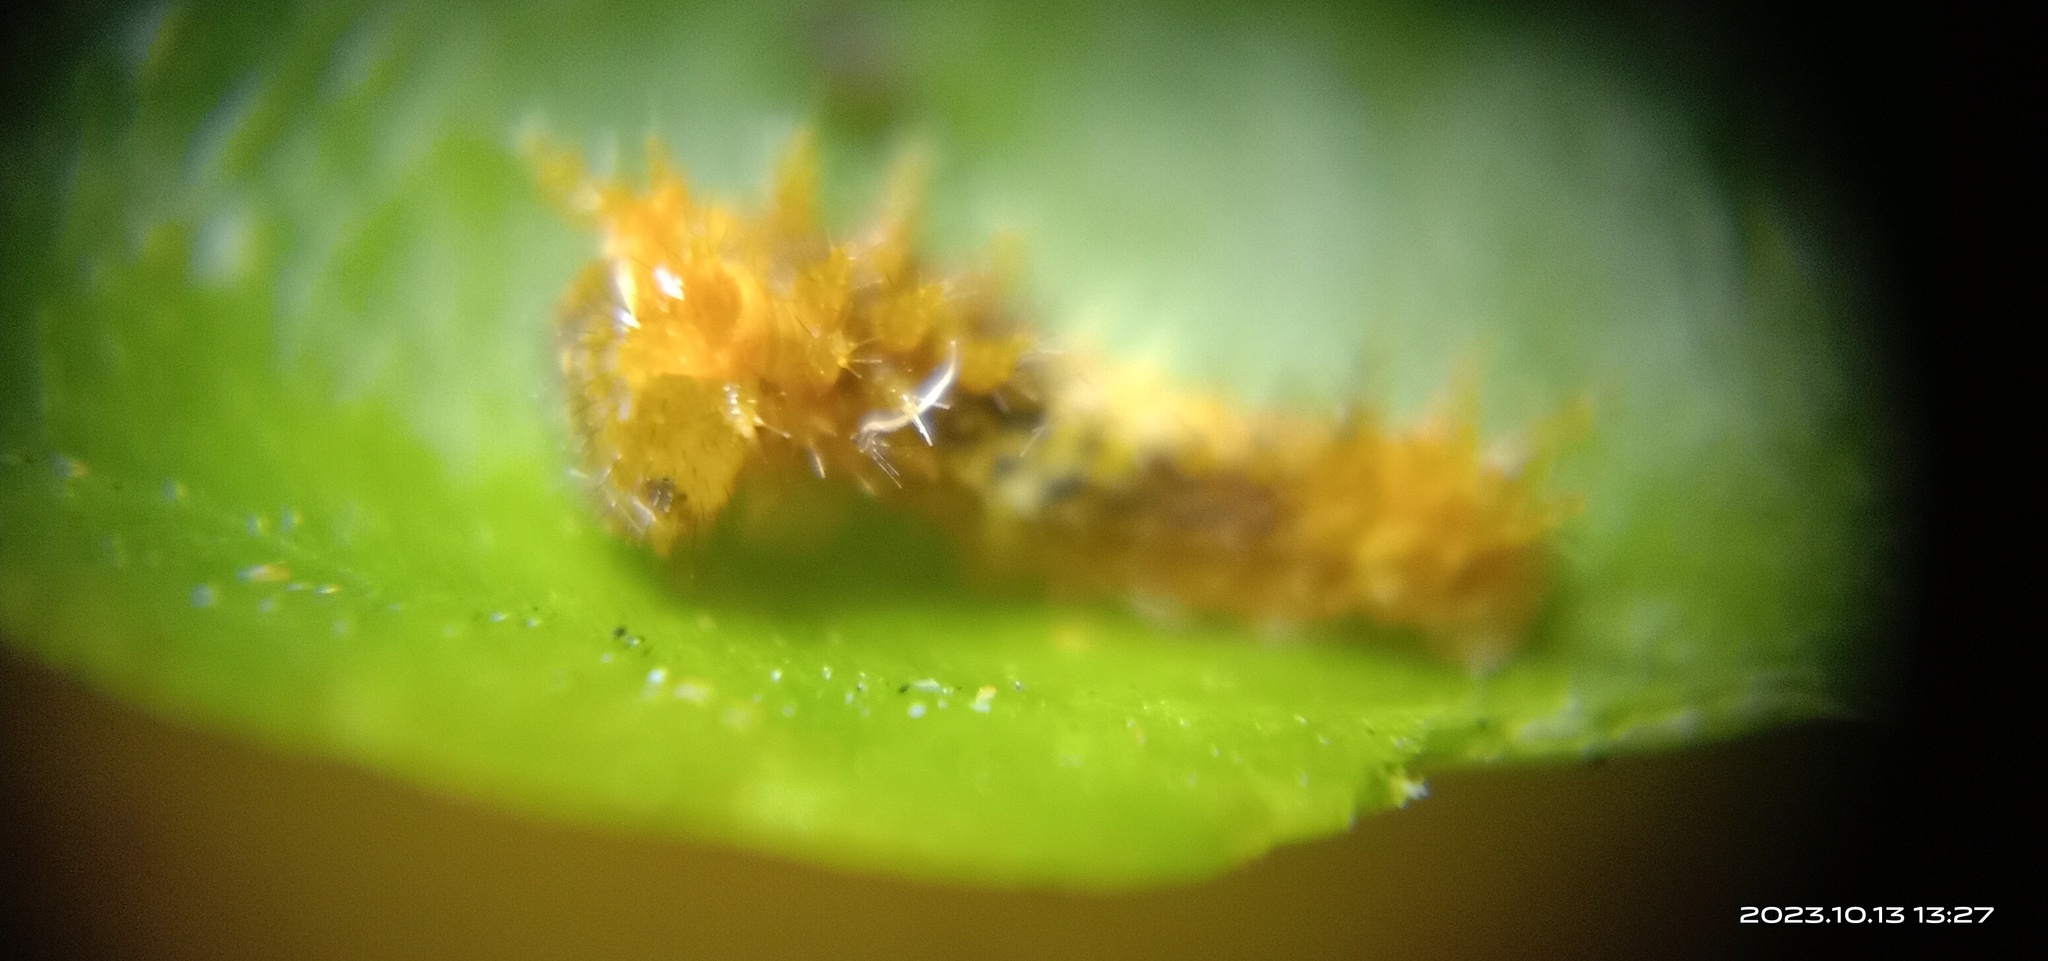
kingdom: Animalia
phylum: Arthropoda
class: Insecta
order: Lepidoptera
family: Papilionidae
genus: Papilio
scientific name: Papilio demoleus
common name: Lime butterfly
